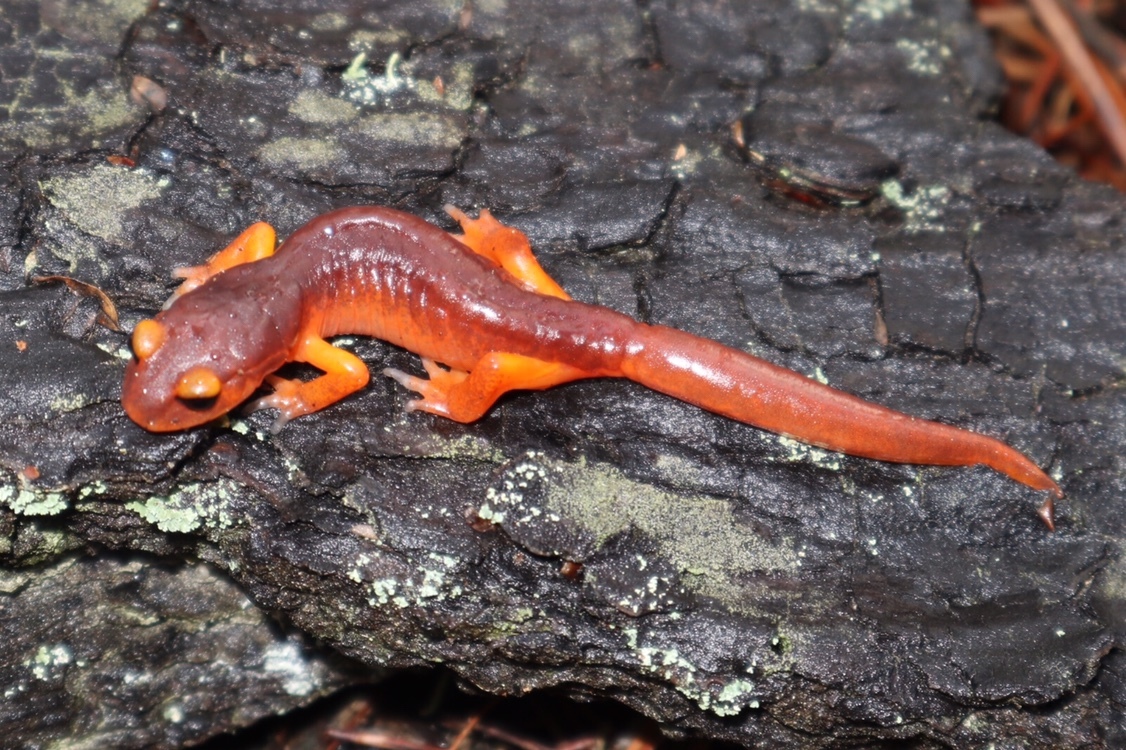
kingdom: Animalia
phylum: Chordata
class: Amphibia
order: Caudata
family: Plethodontidae
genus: Ensatina
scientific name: Ensatina eschscholtzii
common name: Ensatina
